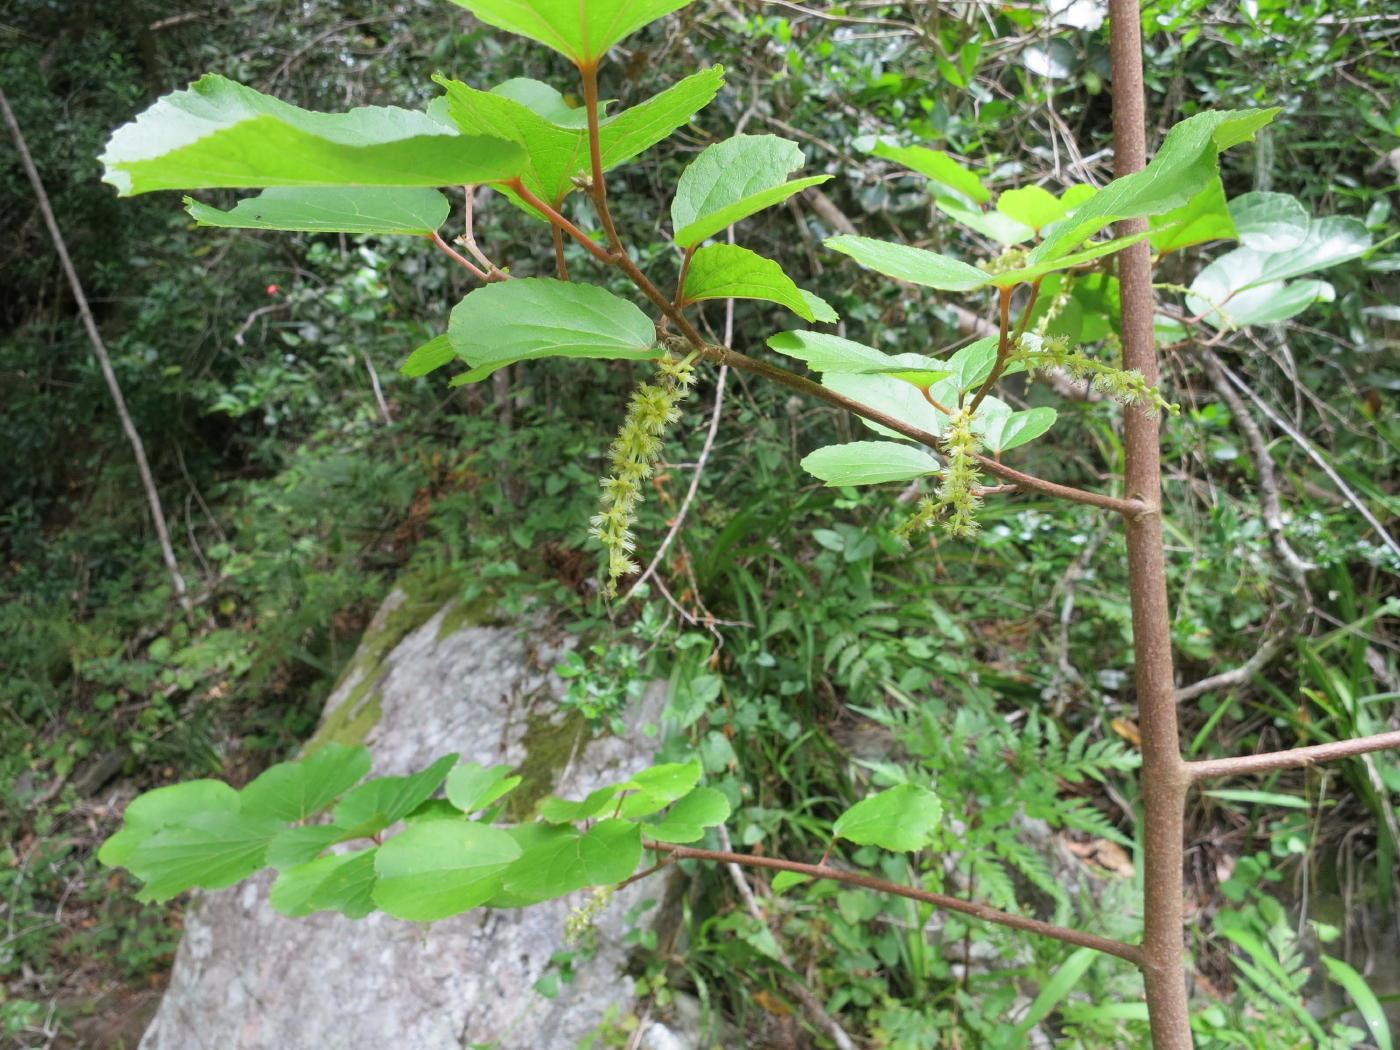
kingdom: Plantae
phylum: Tracheophyta
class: Magnoliopsida
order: Malpighiales
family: Salicaceae
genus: Trimeria
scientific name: Trimeria grandifolia
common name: Wild mulberry
